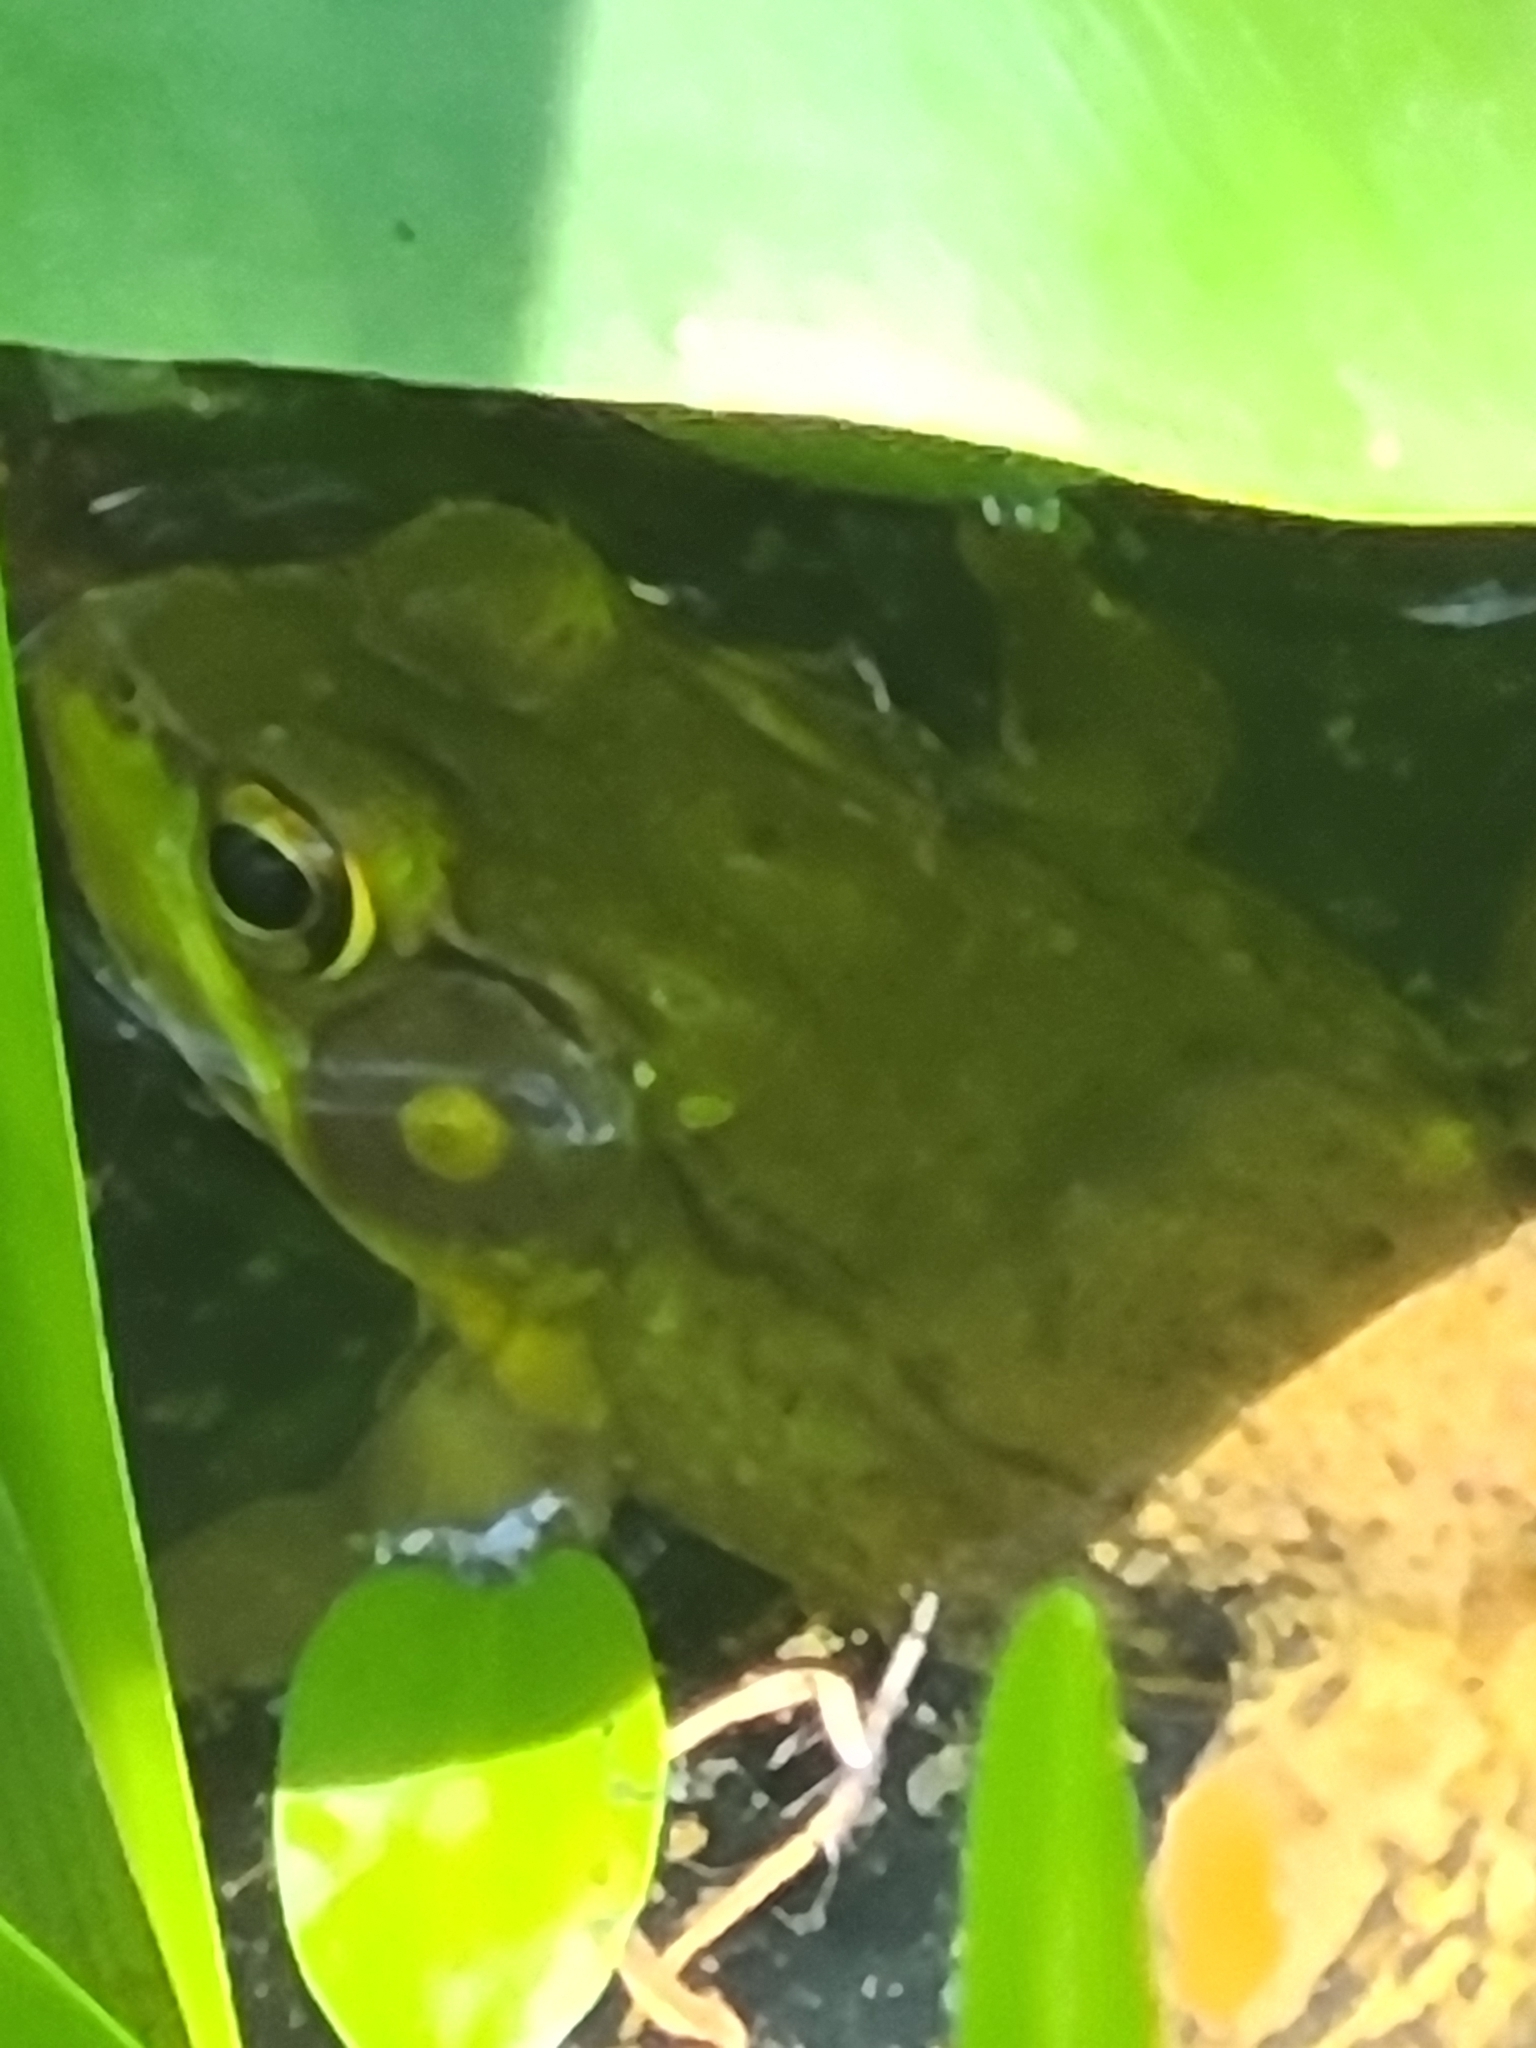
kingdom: Animalia
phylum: Chordata
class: Amphibia
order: Anura
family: Ranidae
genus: Lithobates
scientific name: Lithobates clamitans
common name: Green frog
